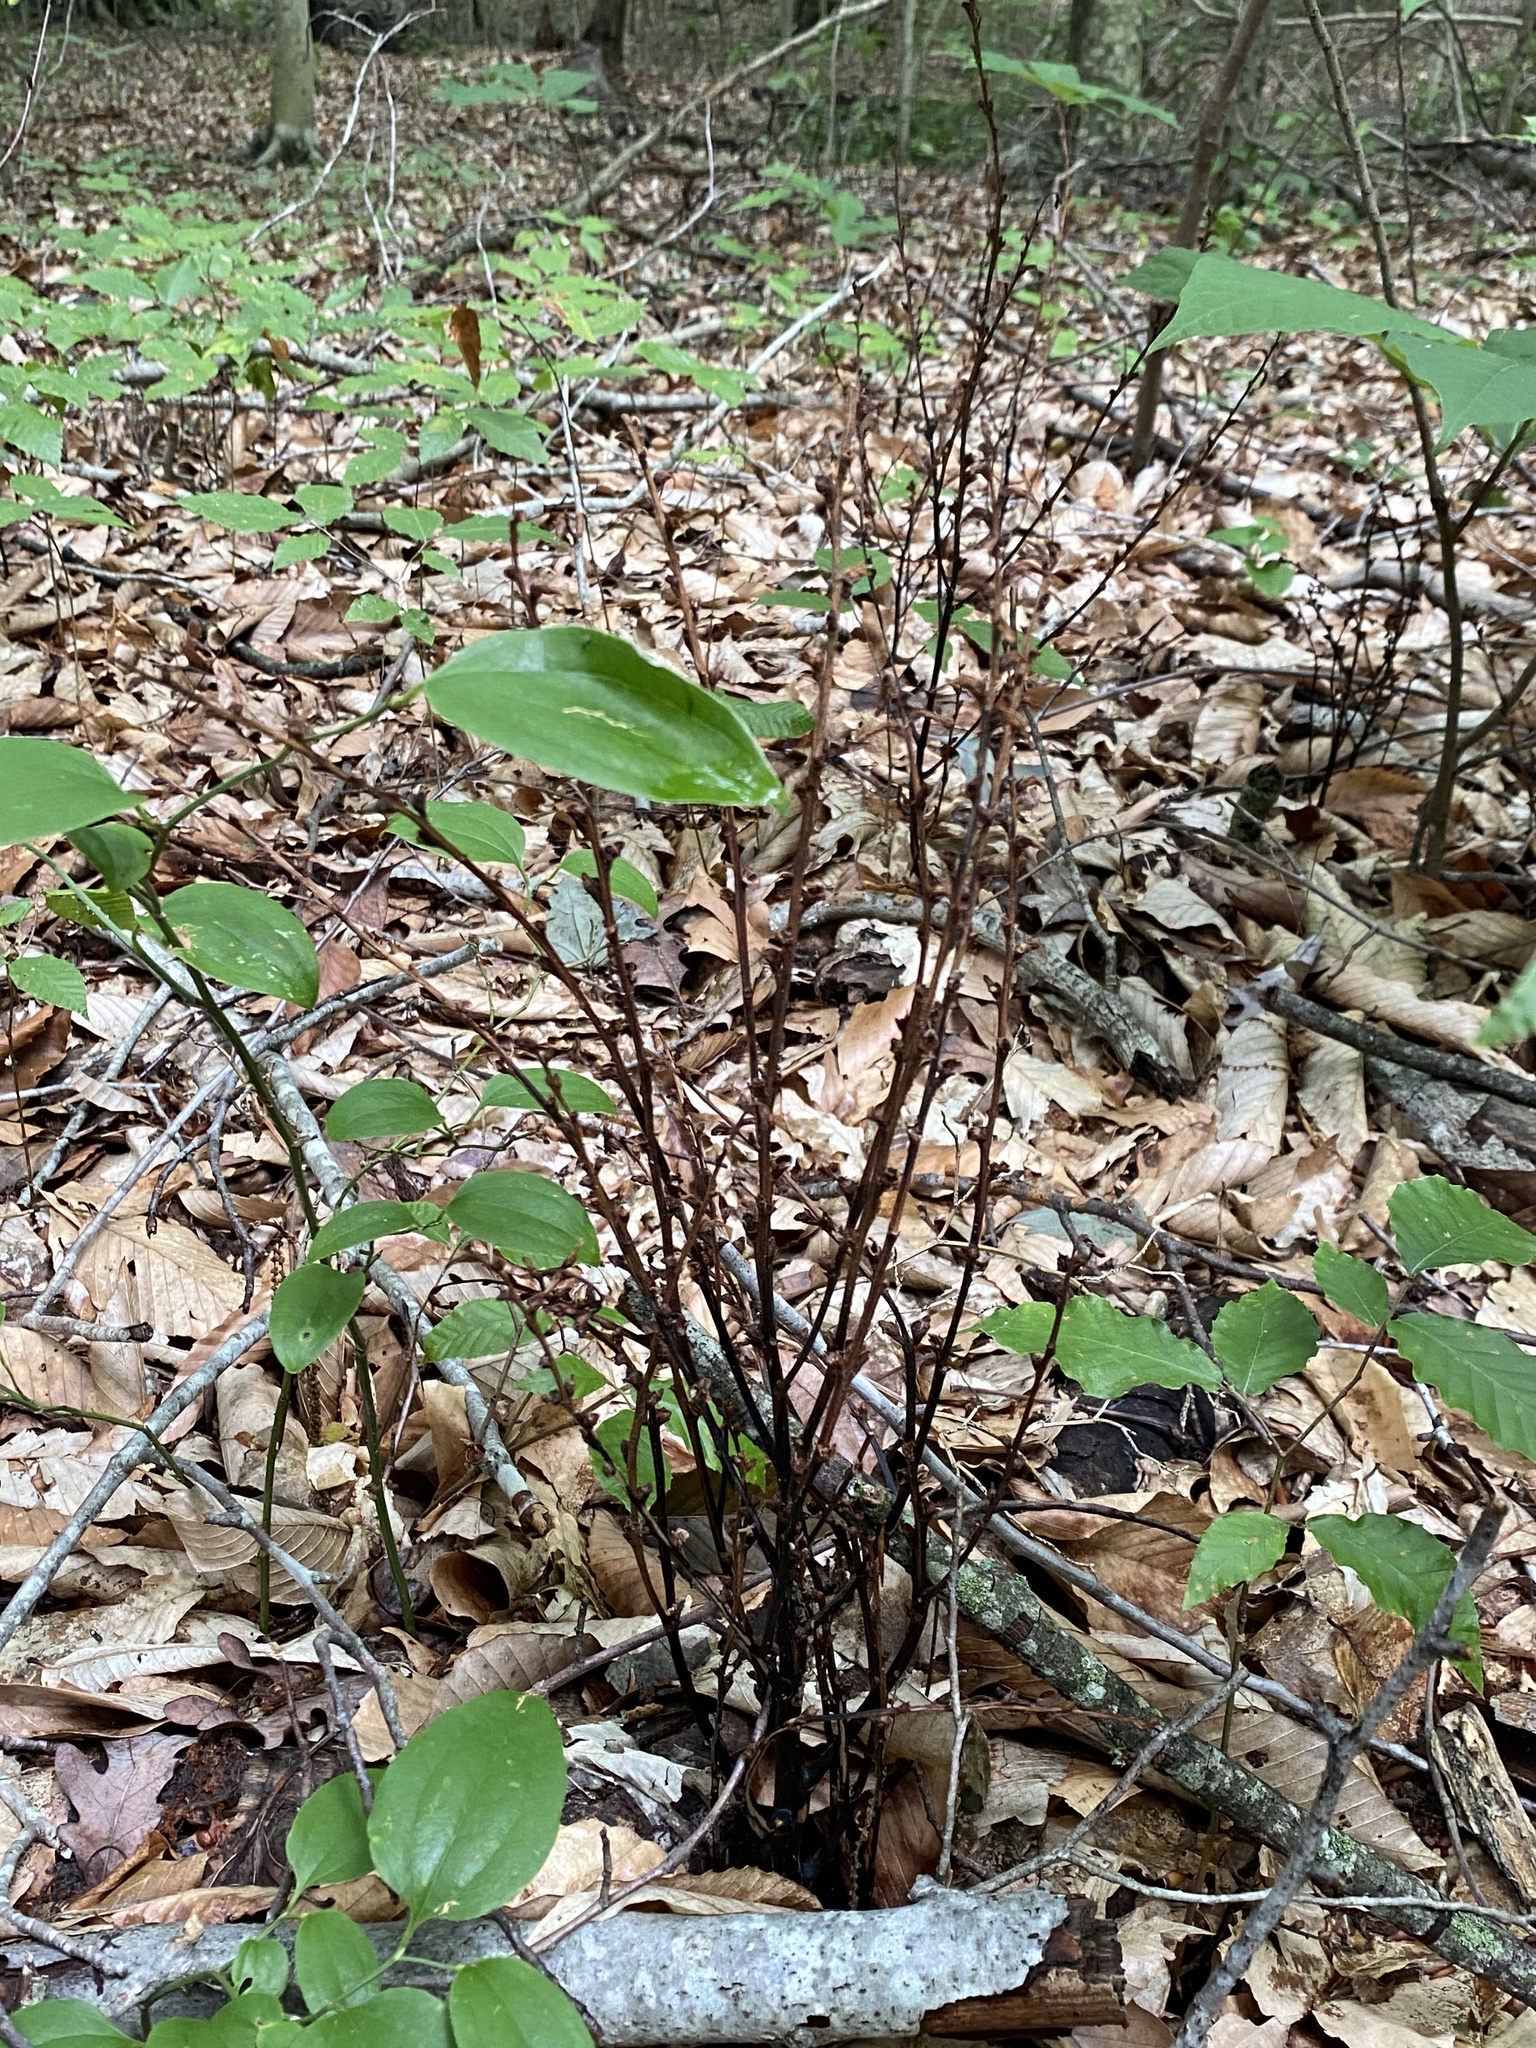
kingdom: Plantae
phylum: Tracheophyta
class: Magnoliopsida
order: Lamiales
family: Orobanchaceae
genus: Epifagus
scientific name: Epifagus virginiana
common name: Beechdrops
